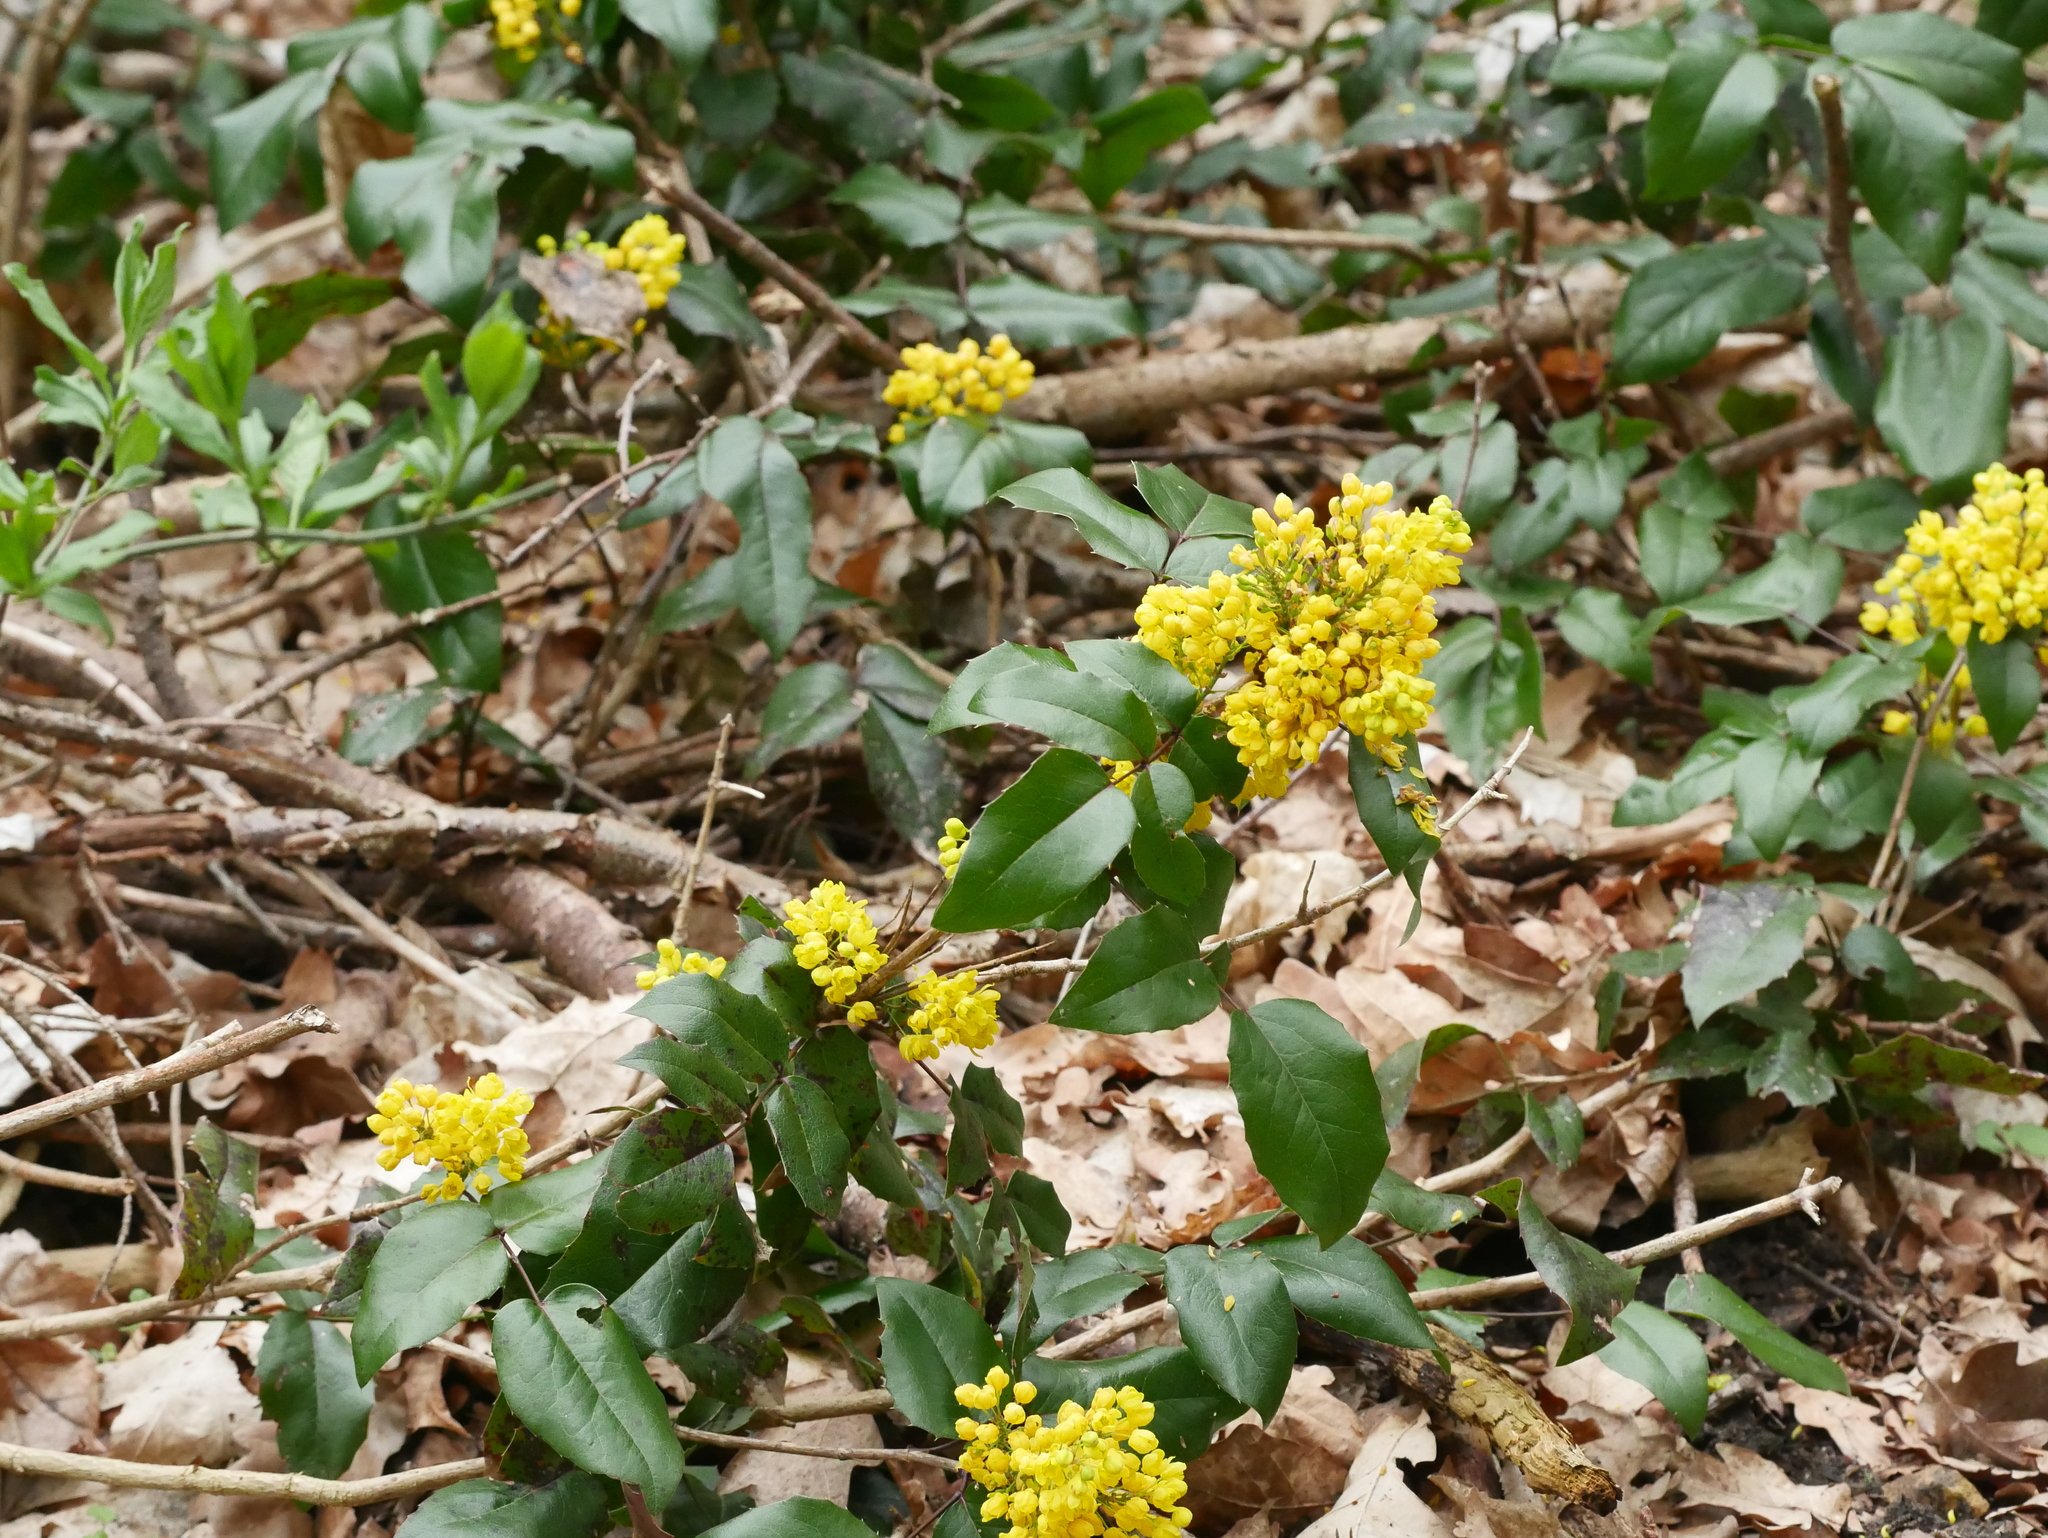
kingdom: Plantae
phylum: Tracheophyta
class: Magnoliopsida
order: Ranunculales
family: Berberidaceae
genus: Mahonia
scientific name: Mahonia aquifolium
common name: Oregon-grape
